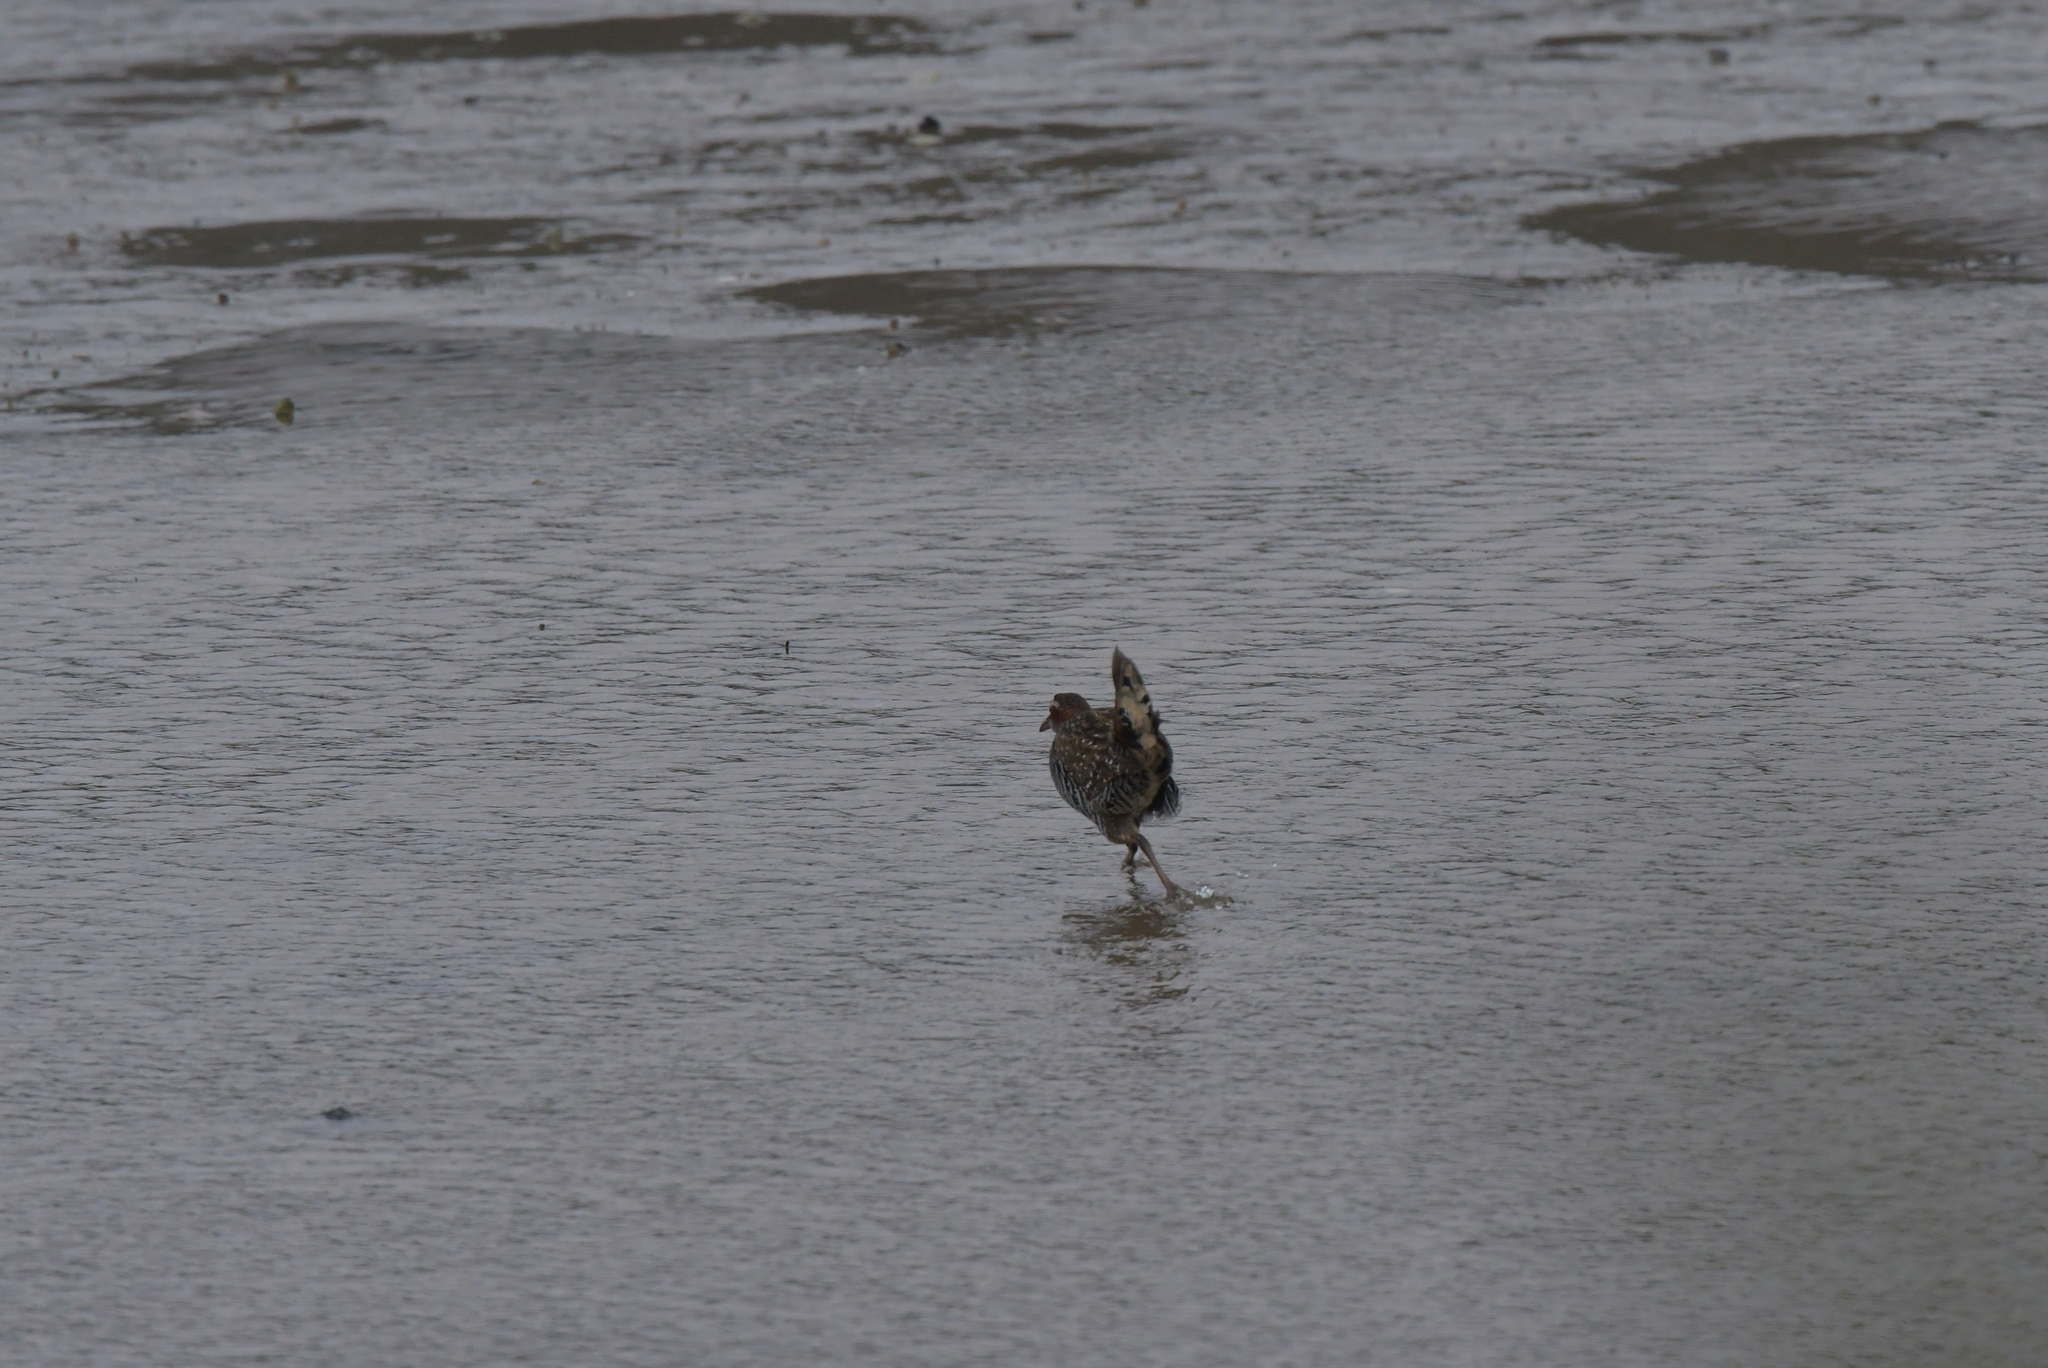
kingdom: Animalia
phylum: Chordata
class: Aves
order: Gruiformes
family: Rallidae
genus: Gallirallus
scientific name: Gallirallus philippensis
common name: Buff-banded rail
